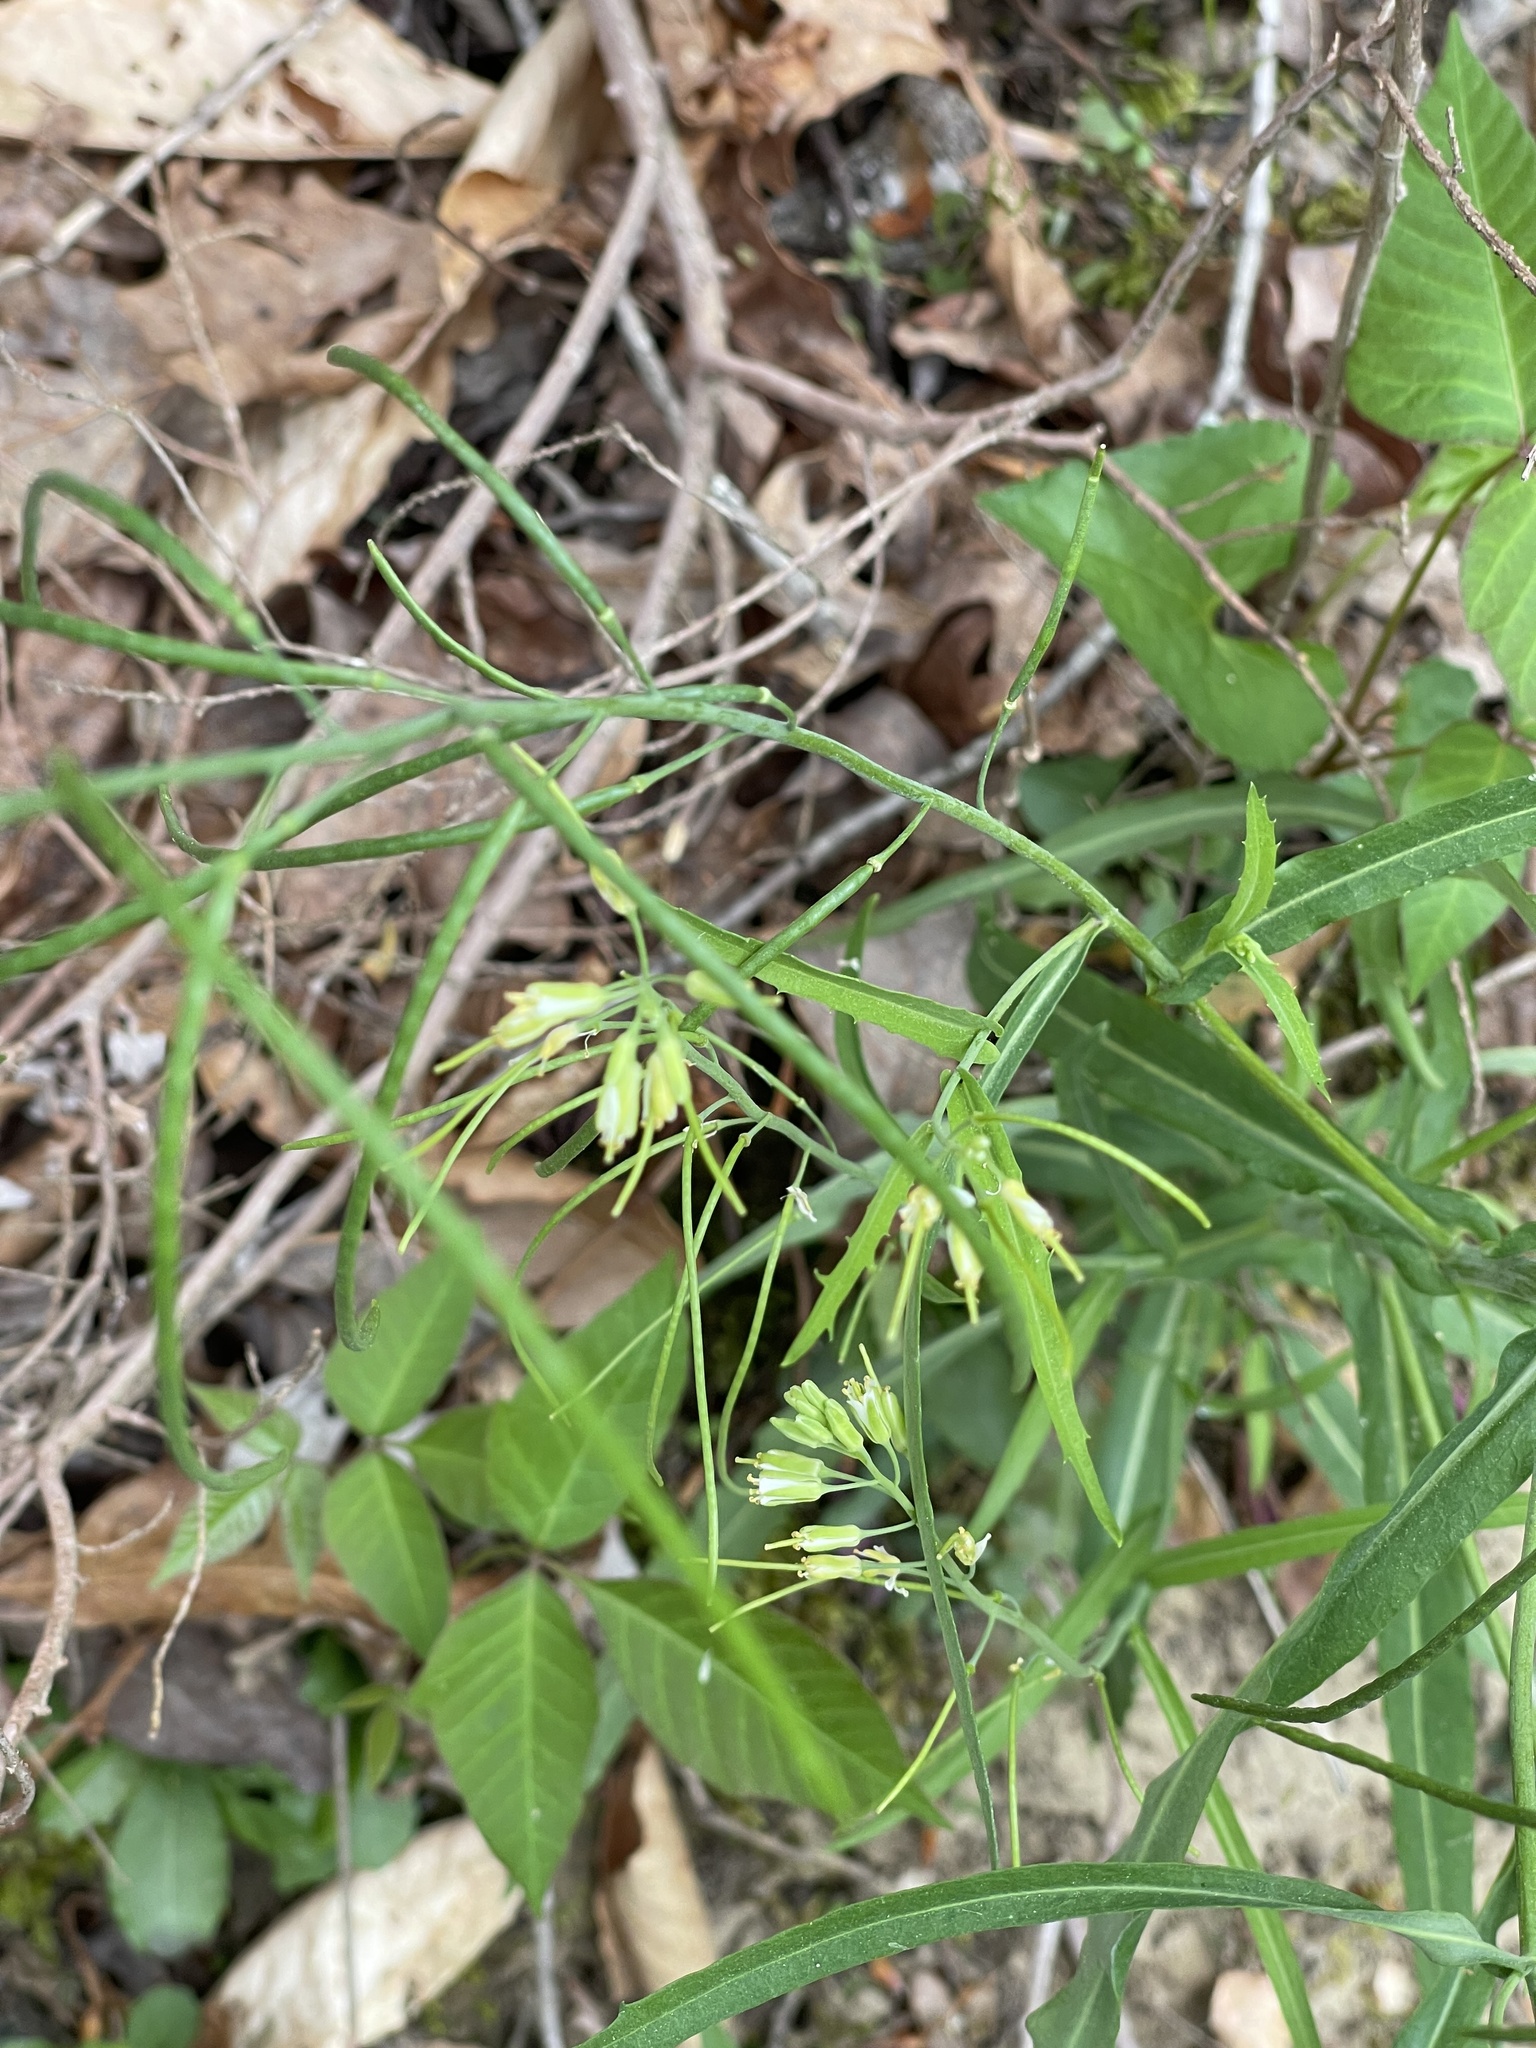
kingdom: Plantae
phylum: Tracheophyta
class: Magnoliopsida
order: Brassicales
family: Brassicaceae
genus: Borodinia
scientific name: Borodinia laevigata
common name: Smooth rockcress
